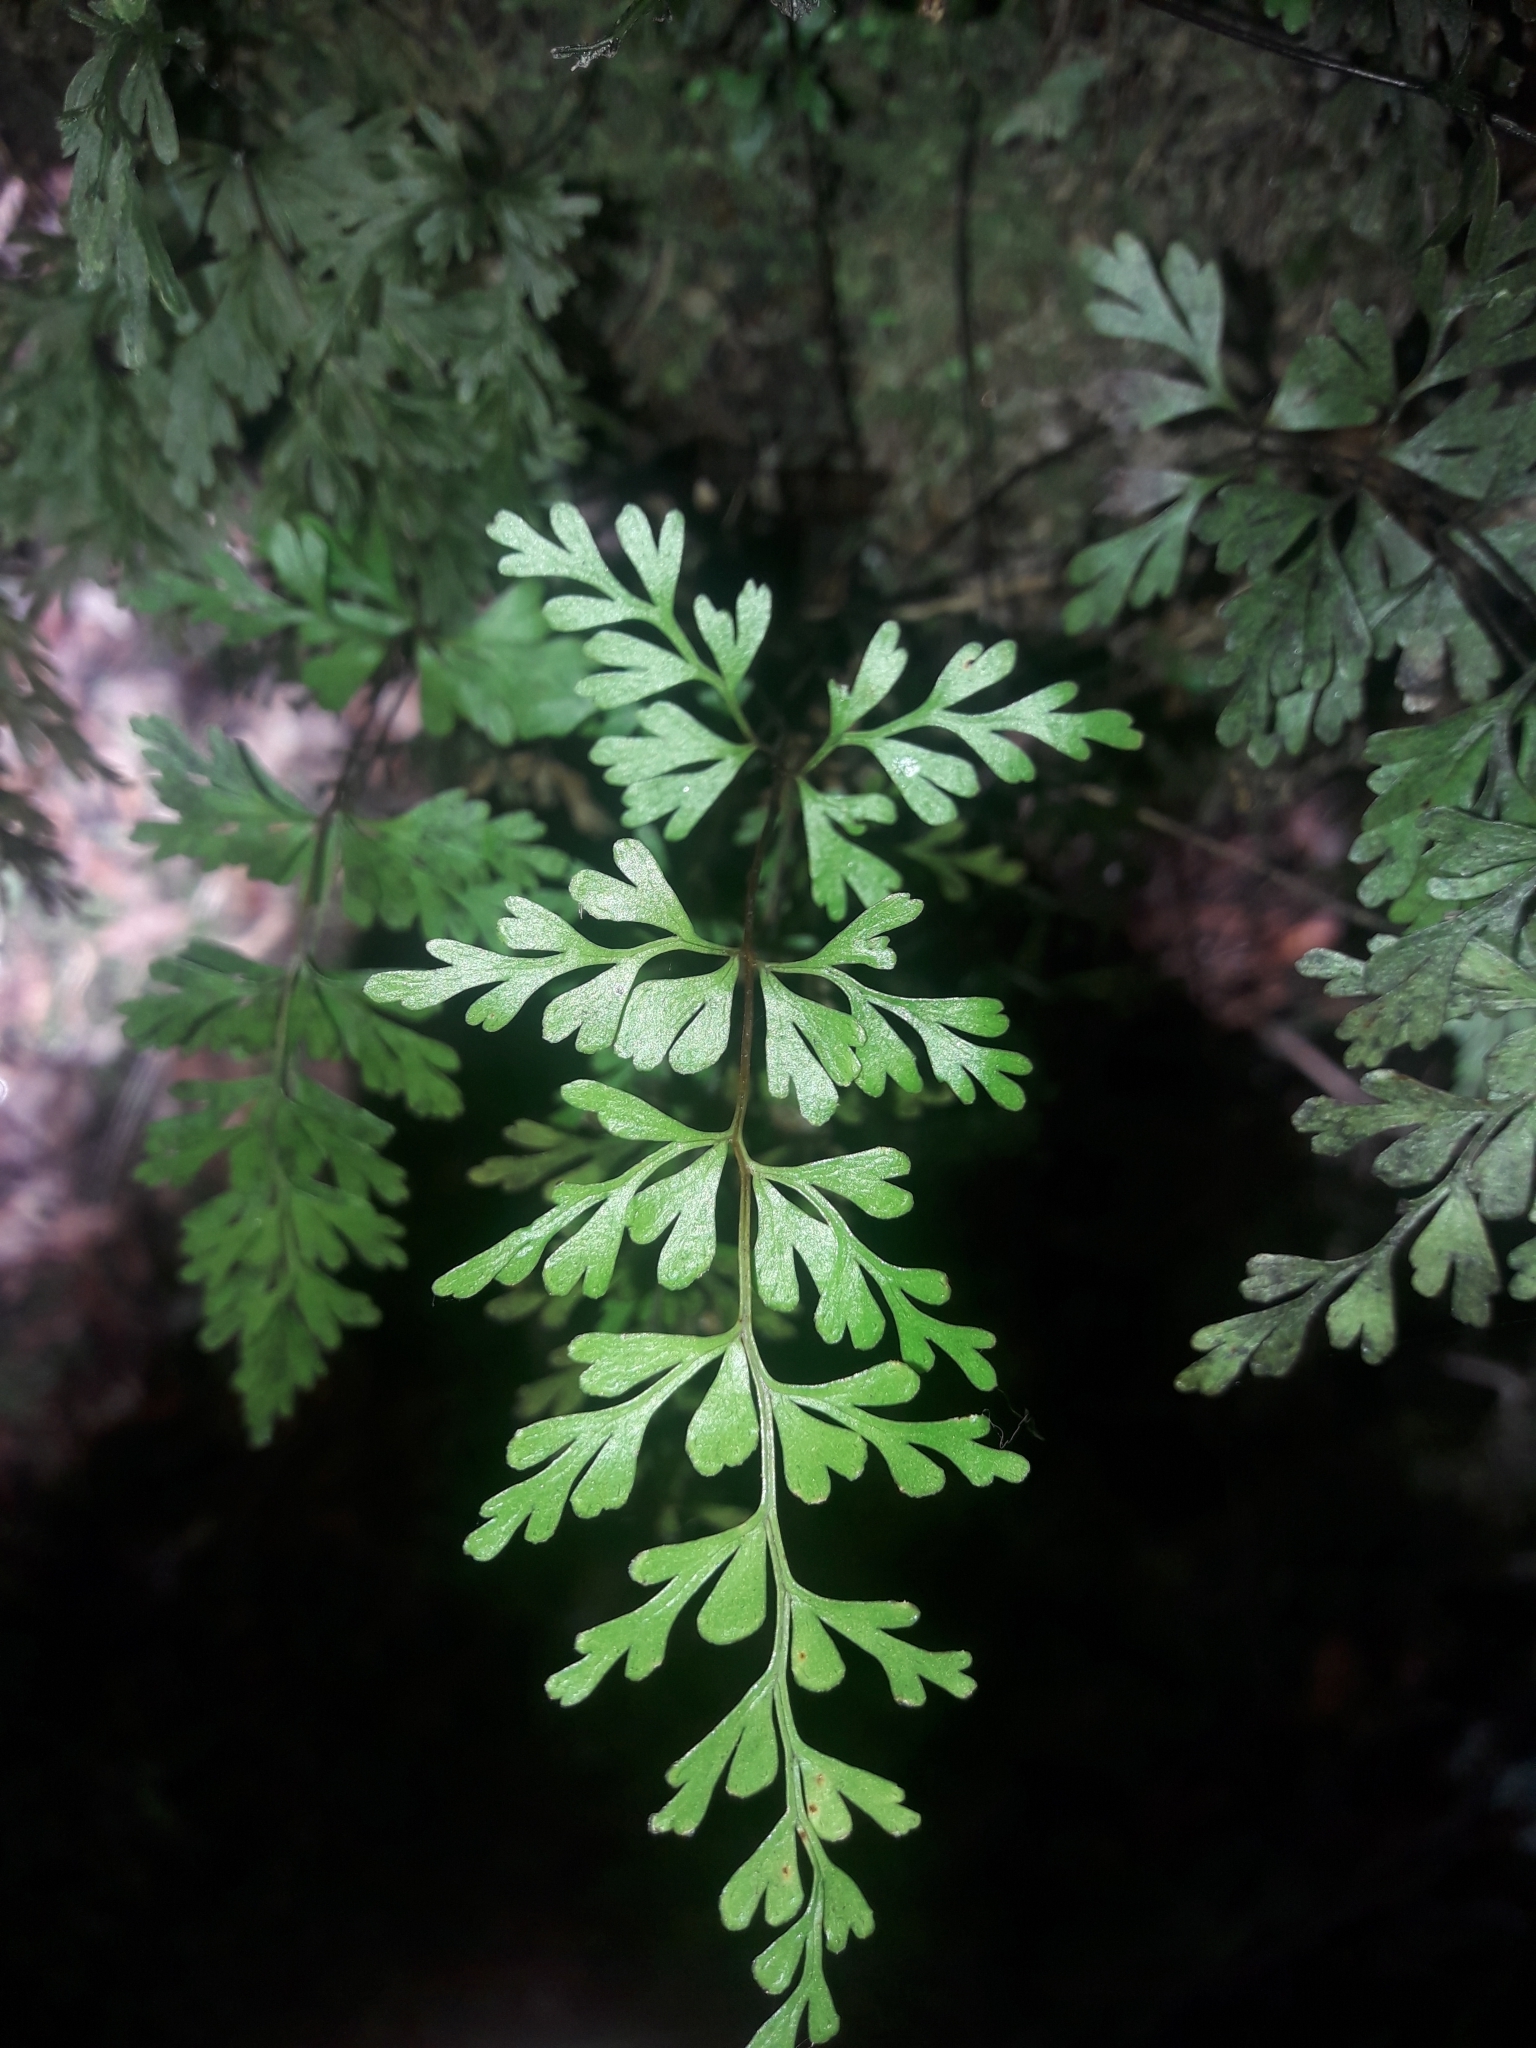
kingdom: Plantae
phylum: Tracheophyta
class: Polypodiopsida
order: Polypodiales
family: Lindsaeaceae
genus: Lindsaea
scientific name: Lindsaea trichomanoides
